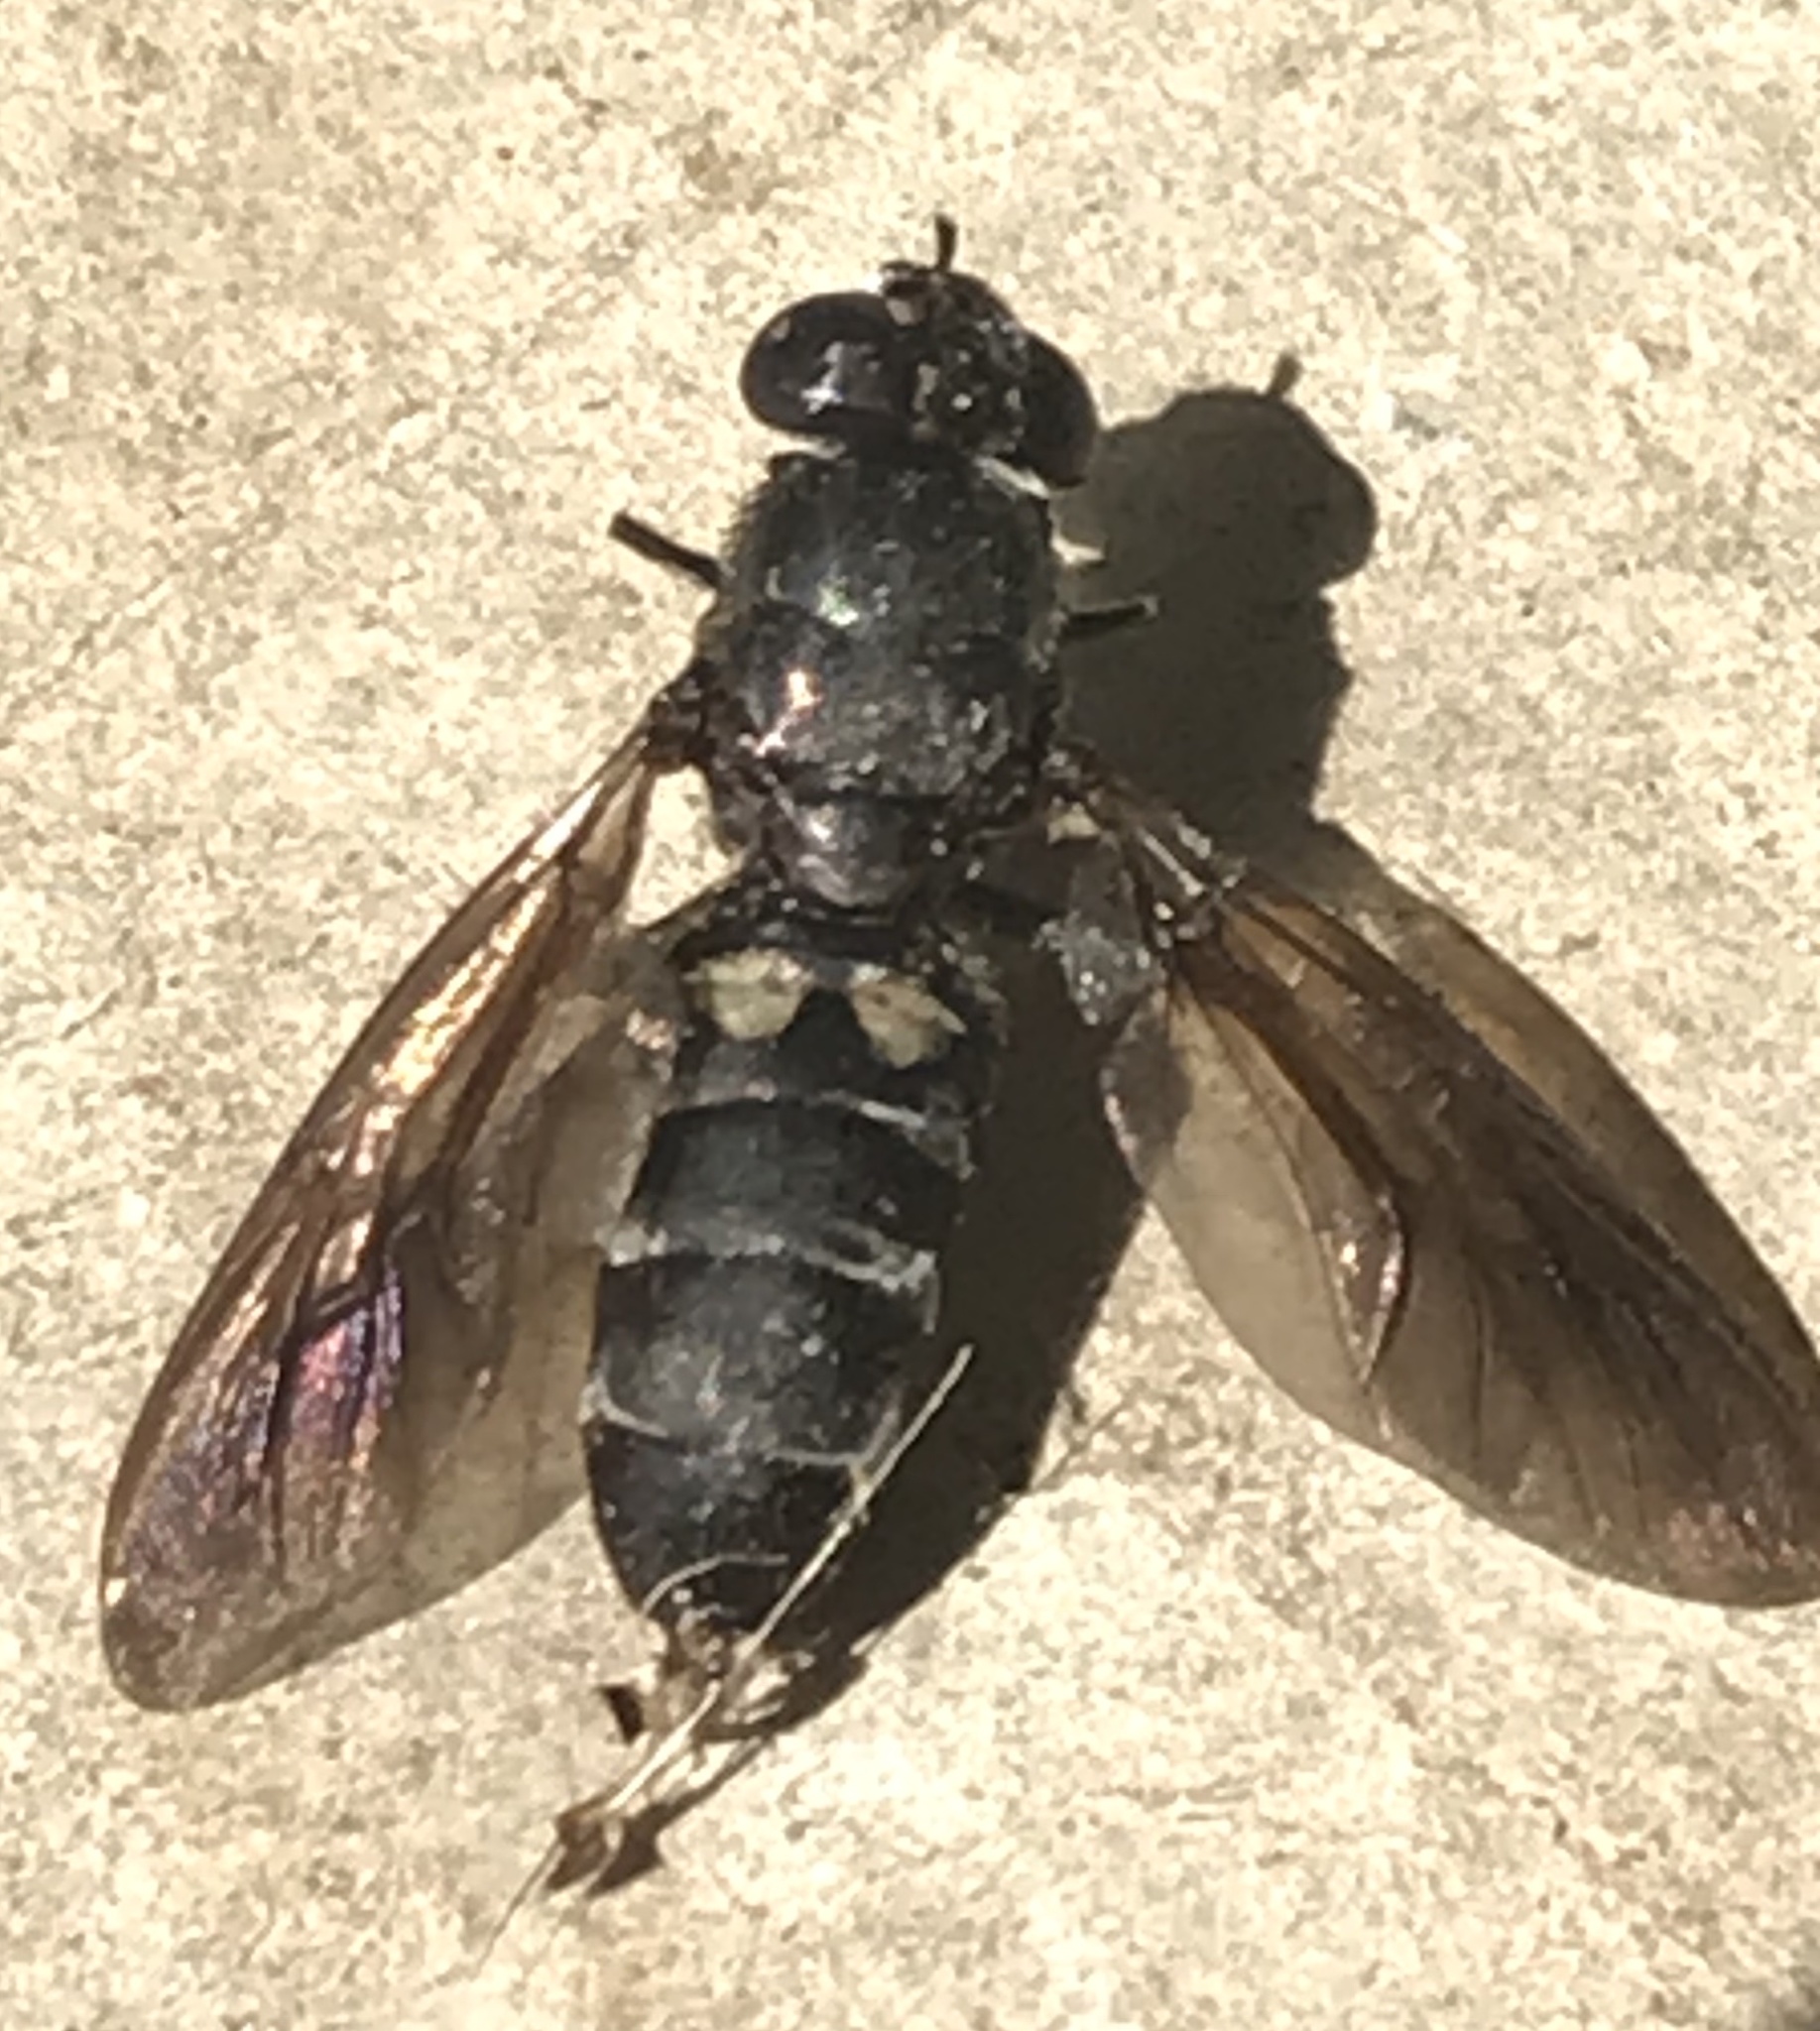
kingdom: Animalia
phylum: Arthropoda
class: Insecta
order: Diptera
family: Stratiomyidae
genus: Hermetia
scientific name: Hermetia illucens
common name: Black soldier fly
